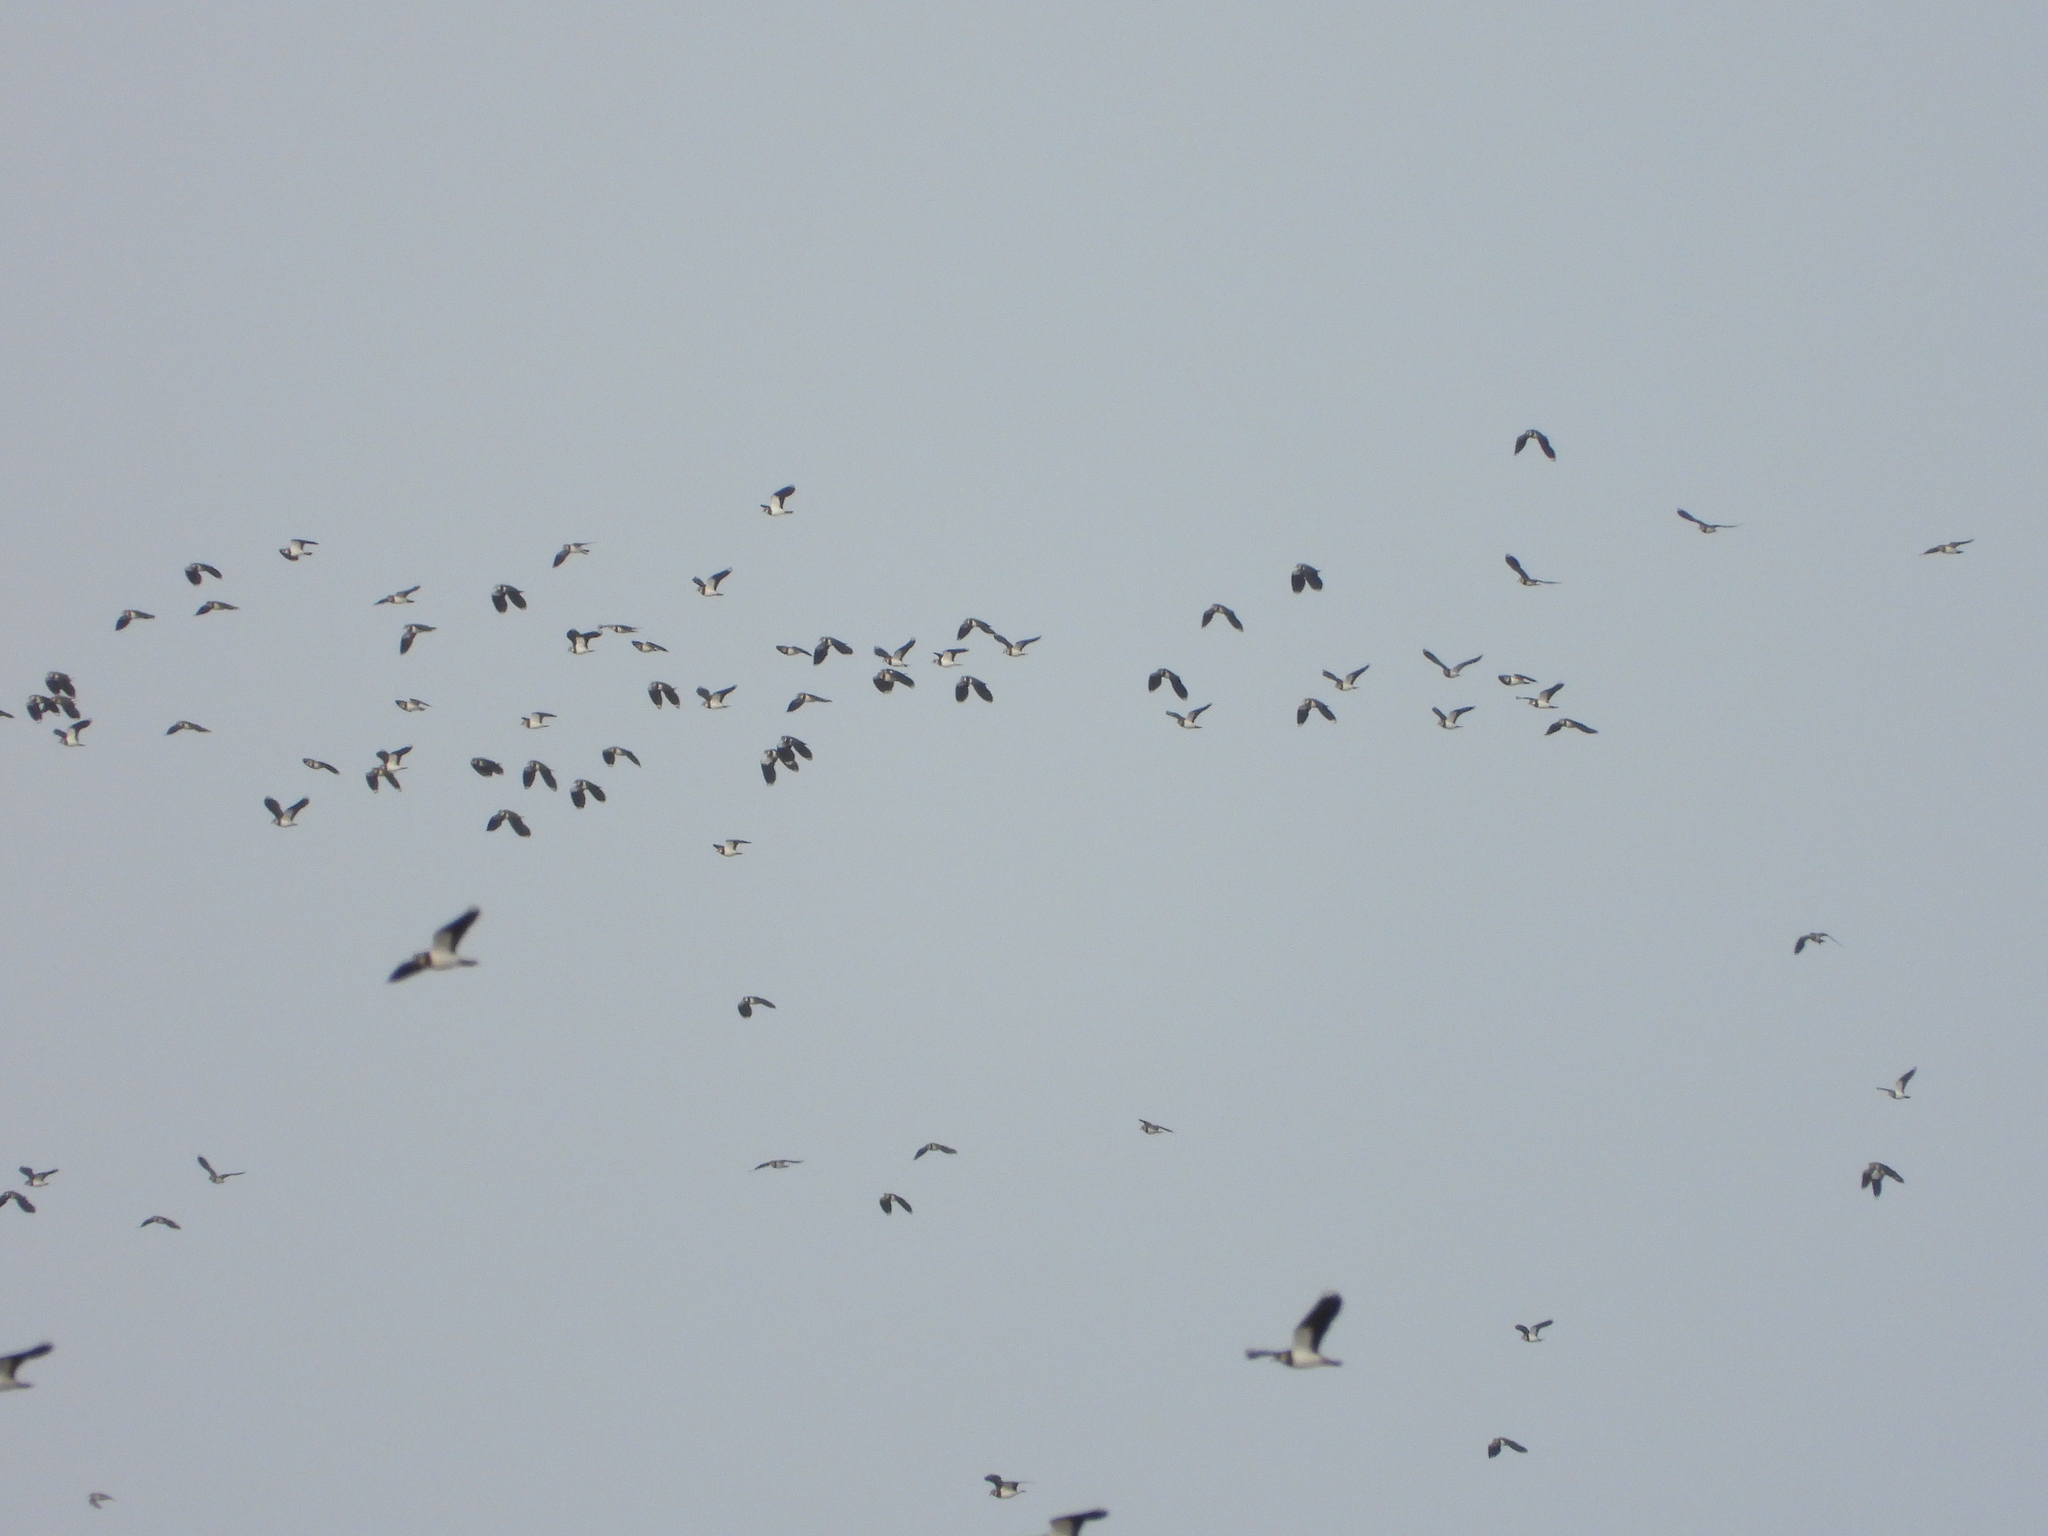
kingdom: Animalia
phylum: Chordata
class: Aves
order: Charadriiformes
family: Charadriidae
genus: Vanellus
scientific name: Vanellus vanellus
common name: Northern lapwing
